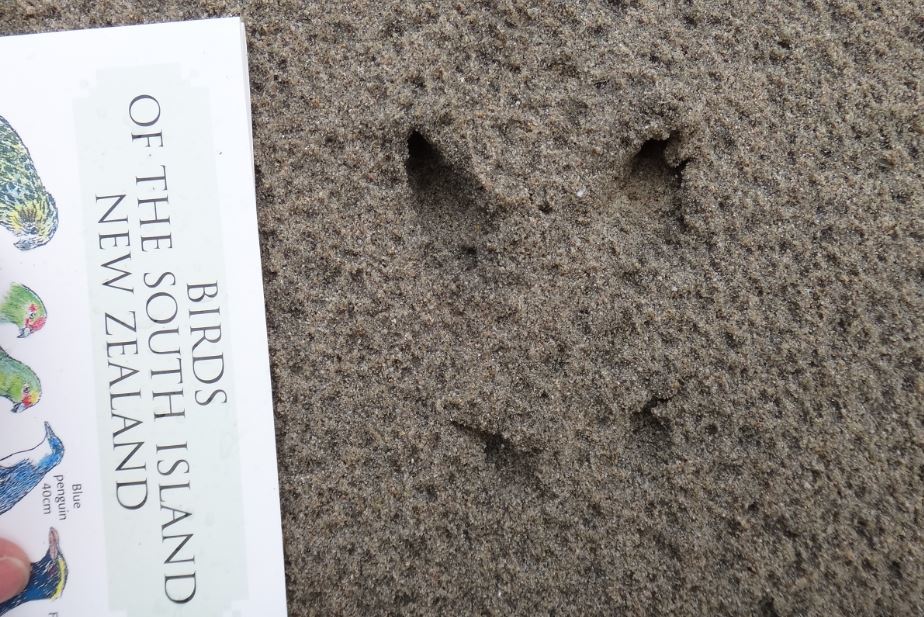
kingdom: Animalia
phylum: Chordata
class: Mammalia
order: Artiodactyla
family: Cervidae
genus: Odocoileus
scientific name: Odocoileus virginianus
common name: White-tailed deer
